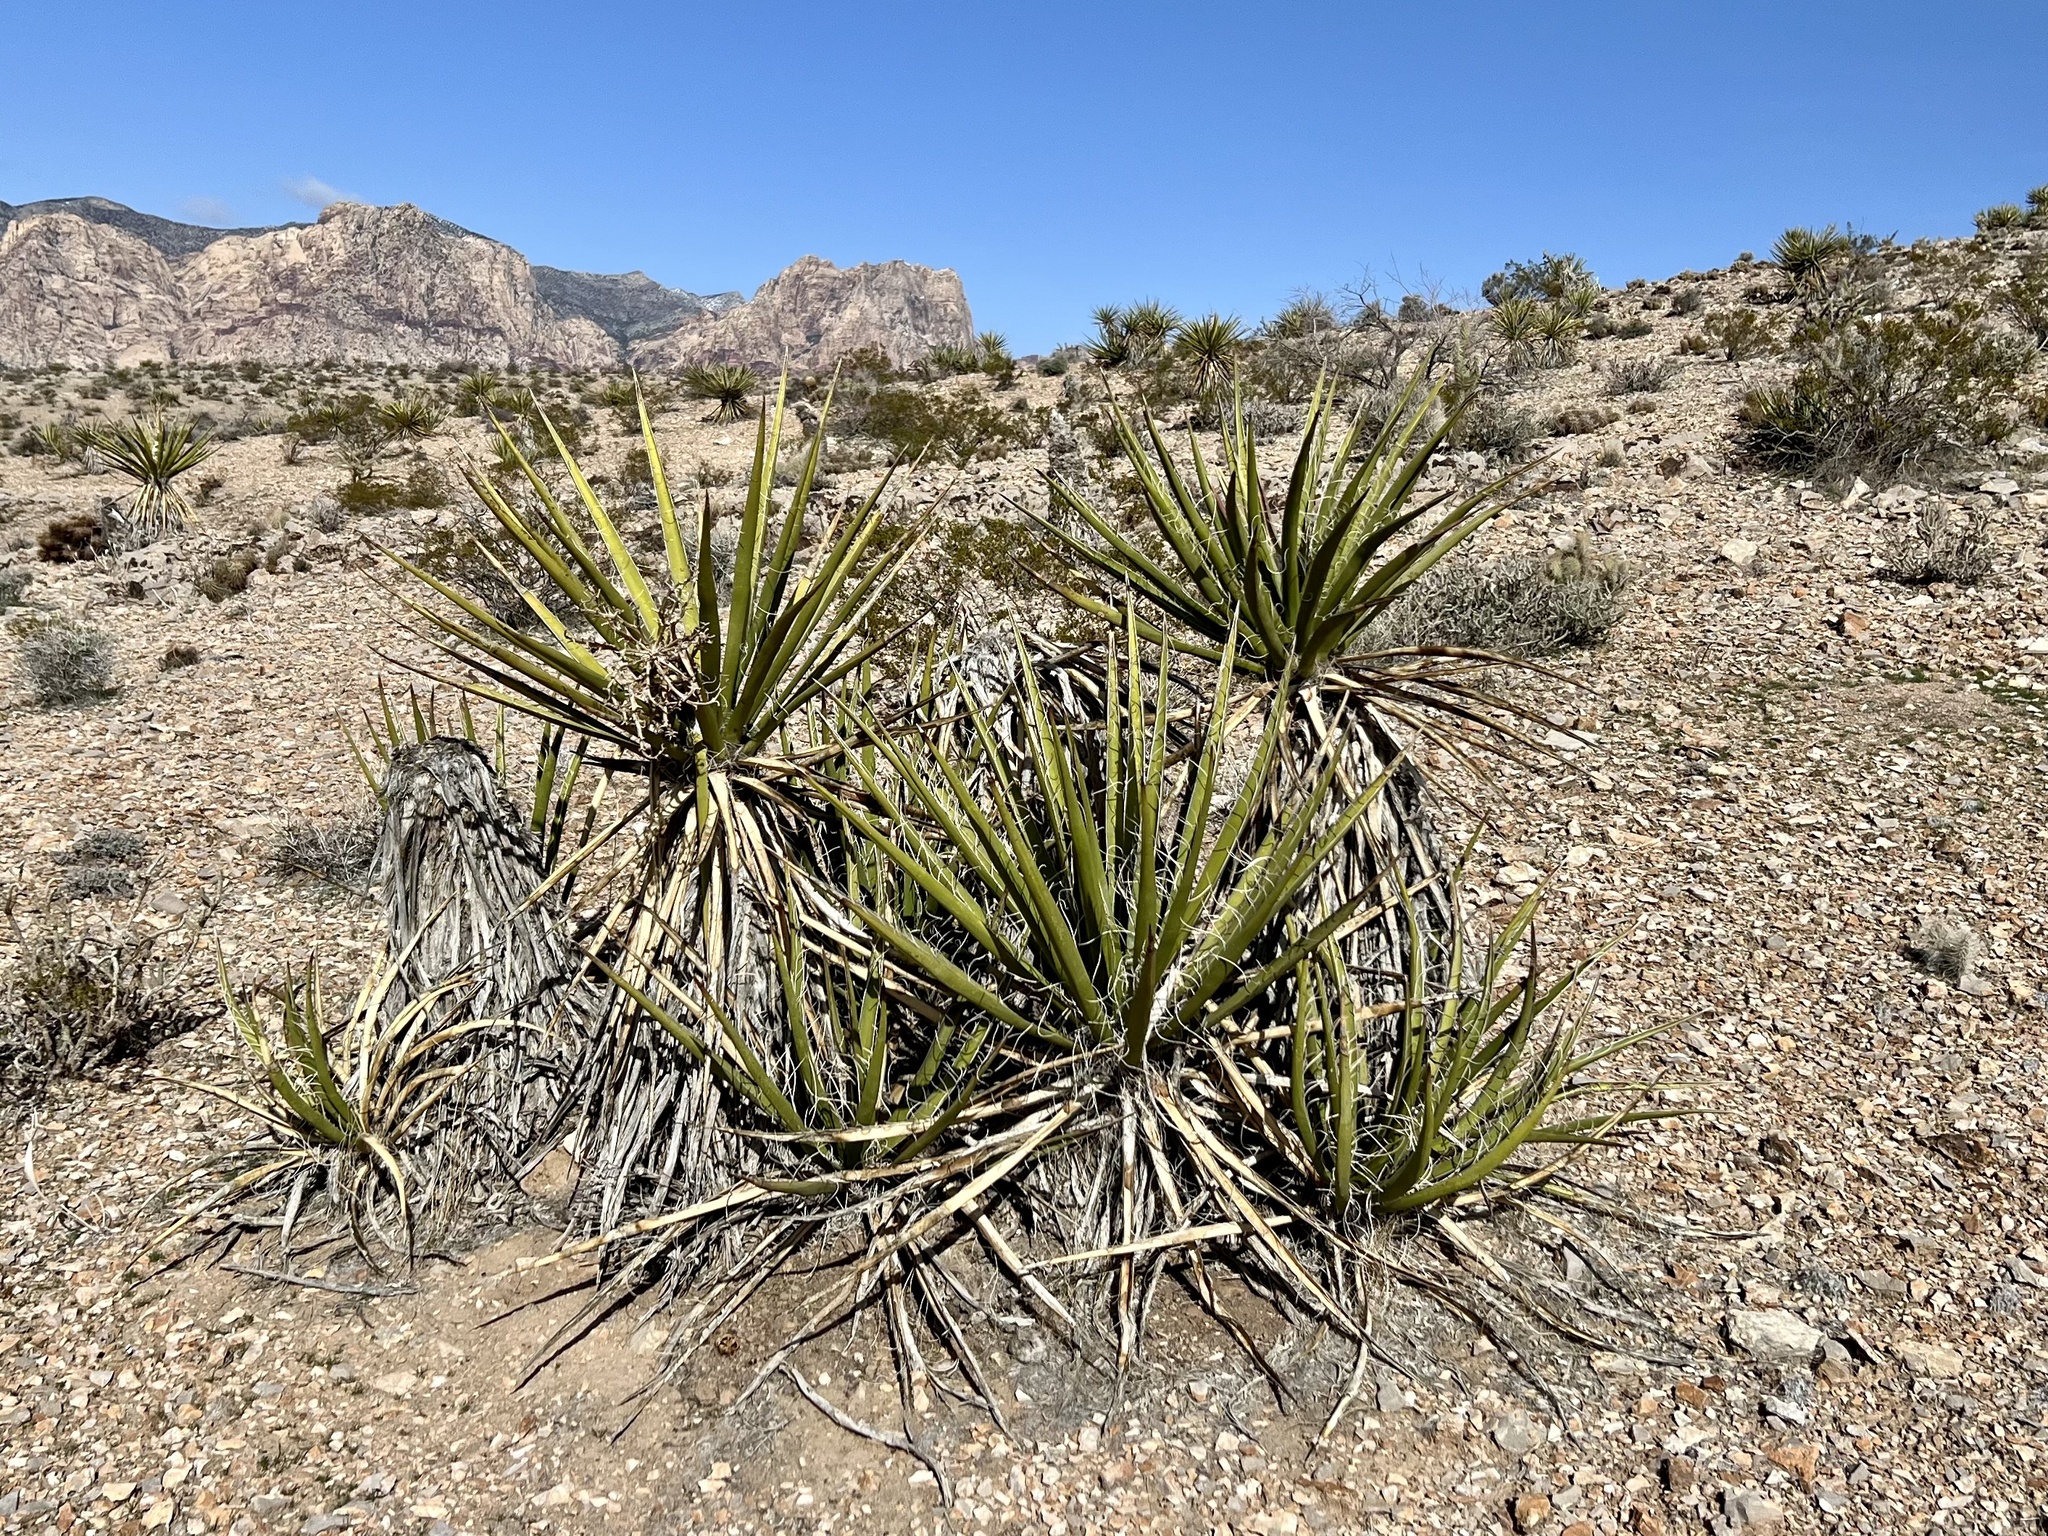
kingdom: Plantae
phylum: Tracheophyta
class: Liliopsida
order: Asparagales
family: Asparagaceae
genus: Yucca
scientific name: Yucca schidigera
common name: Mojave yucca
